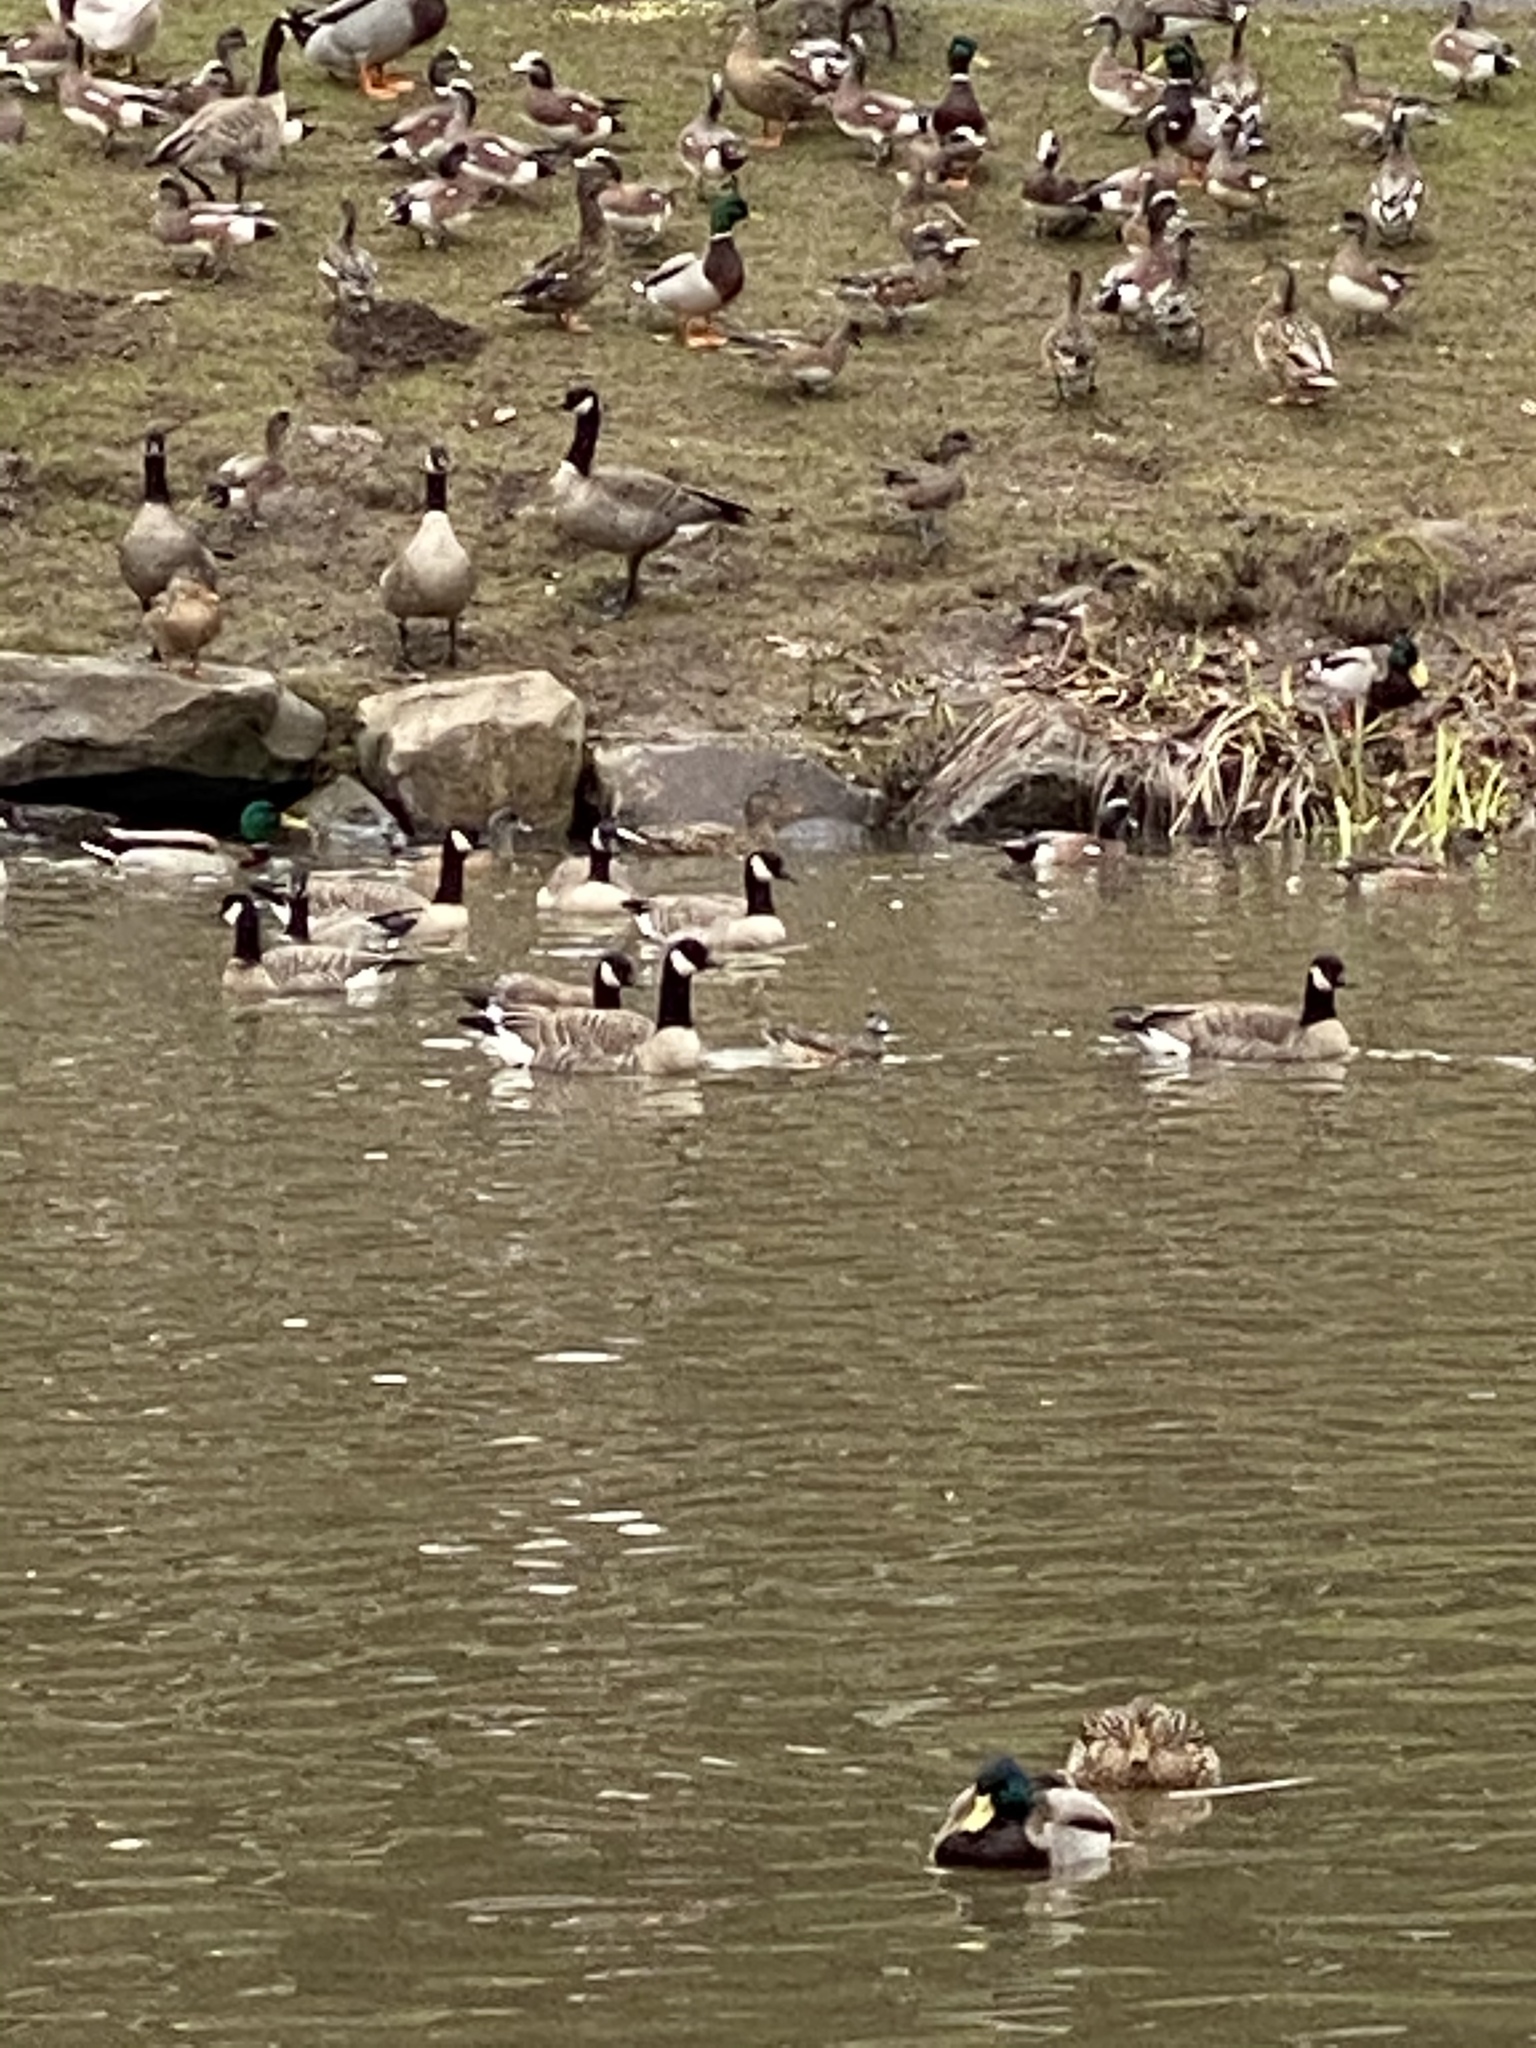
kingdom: Animalia
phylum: Chordata
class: Aves
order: Anseriformes
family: Anatidae
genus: Branta
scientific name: Branta hutchinsii
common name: Cackling goose
